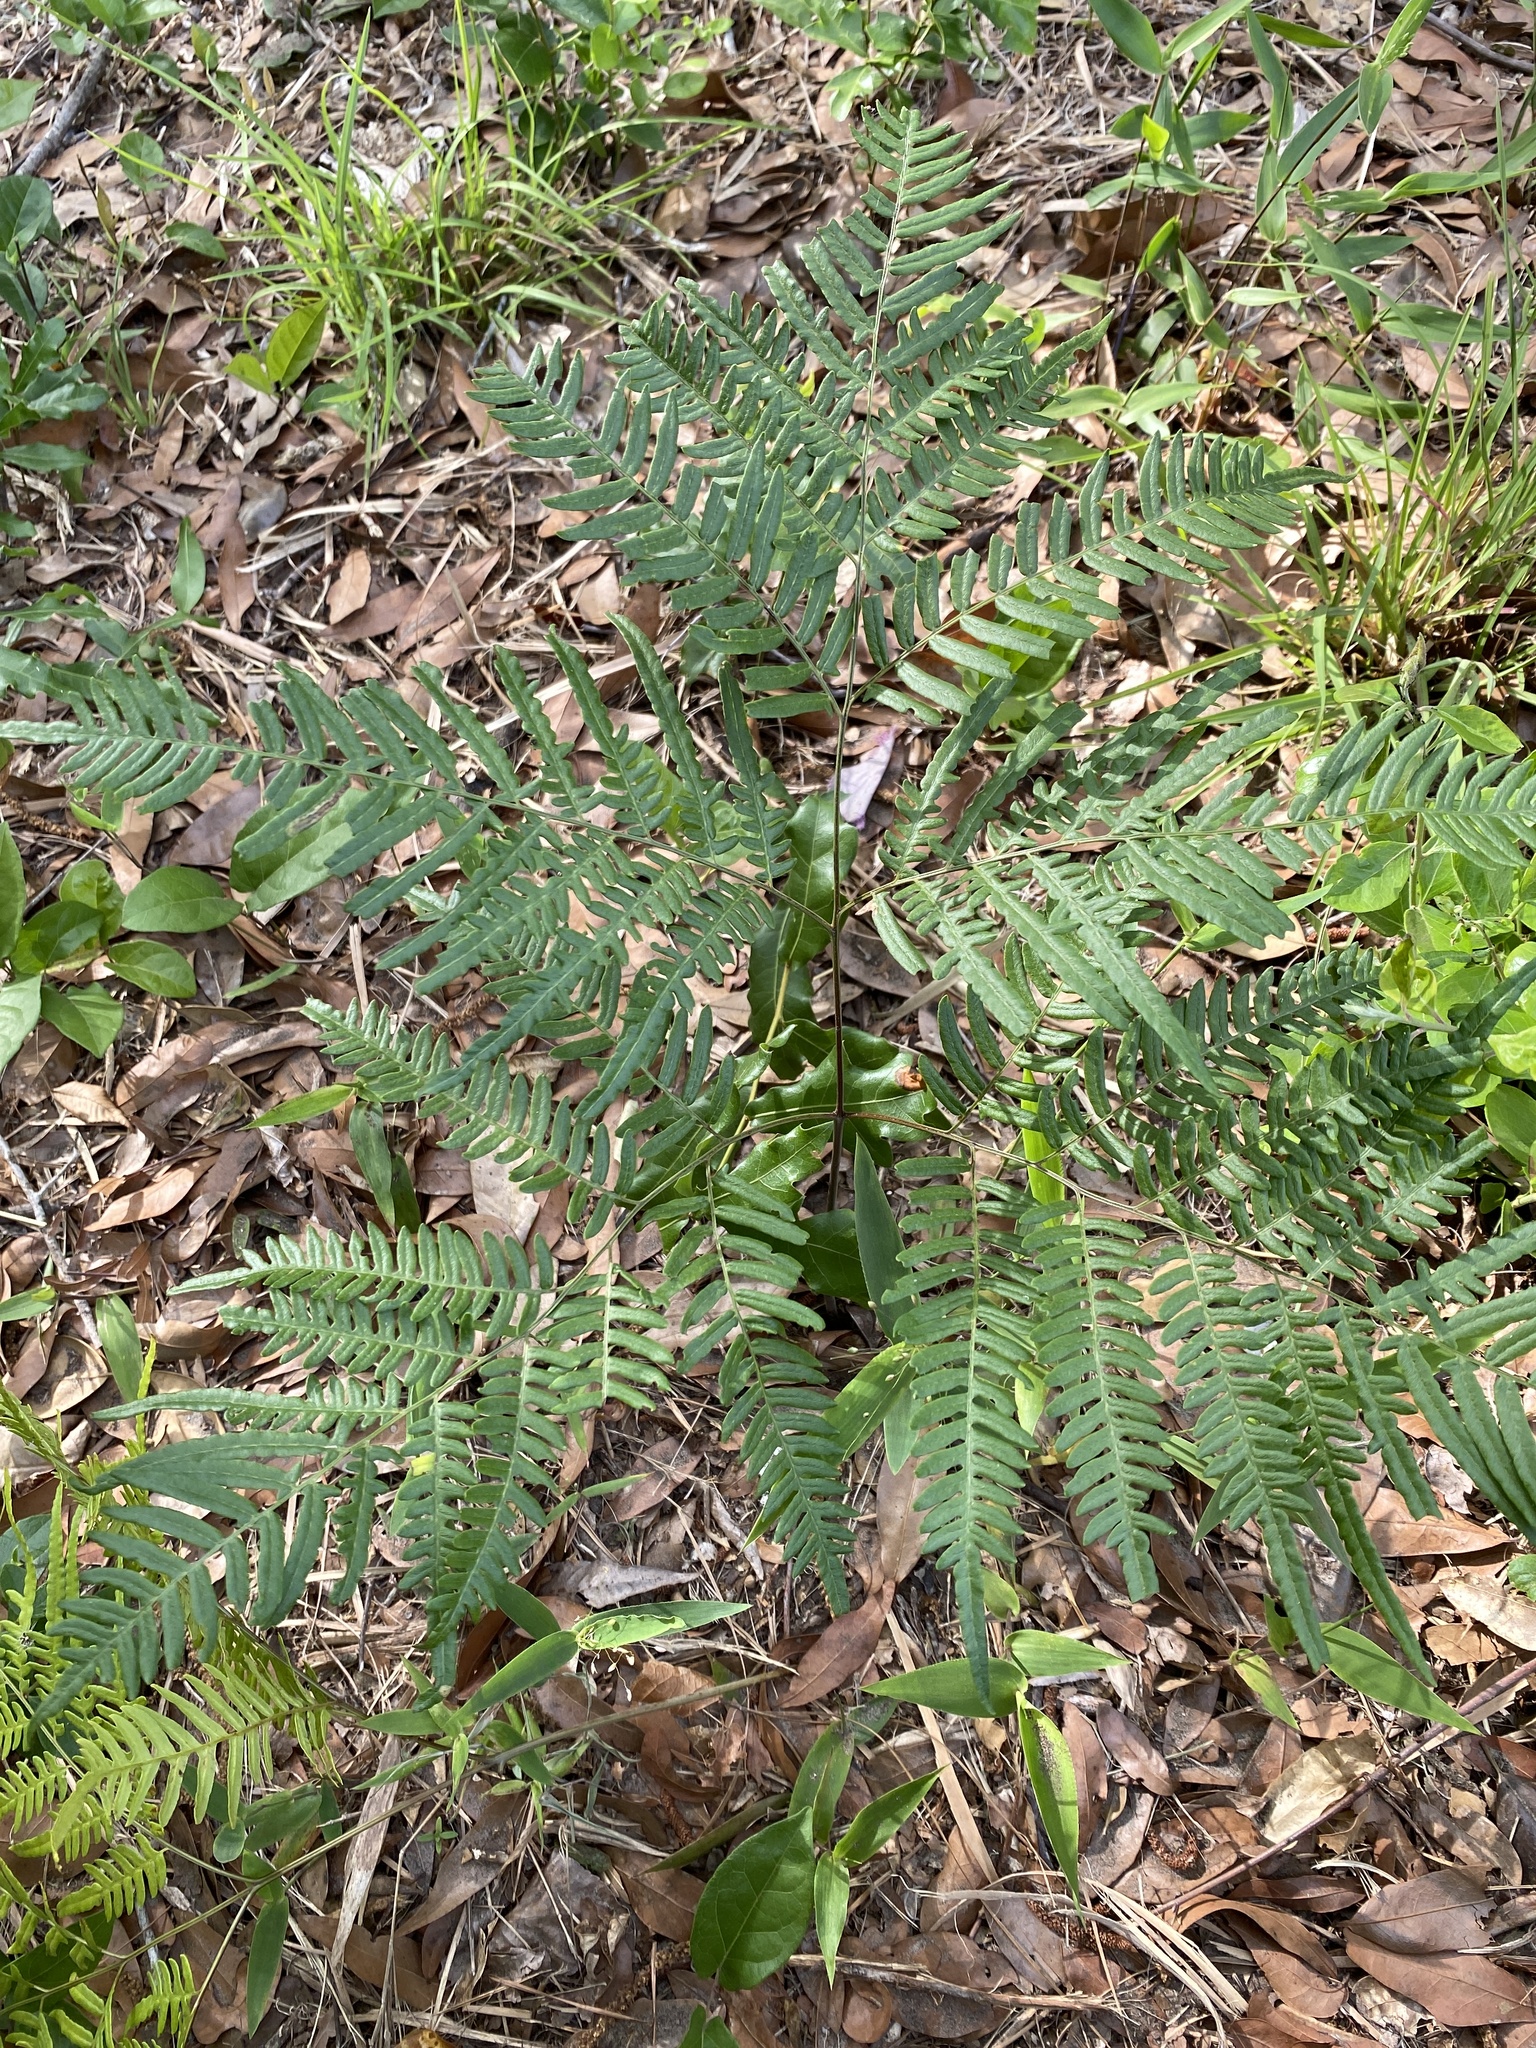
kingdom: Plantae
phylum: Tracheophyta
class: Polypodiopsida
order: Polypodiales
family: Dennstaedtiaceae
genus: Pteridium
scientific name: Pteridium
